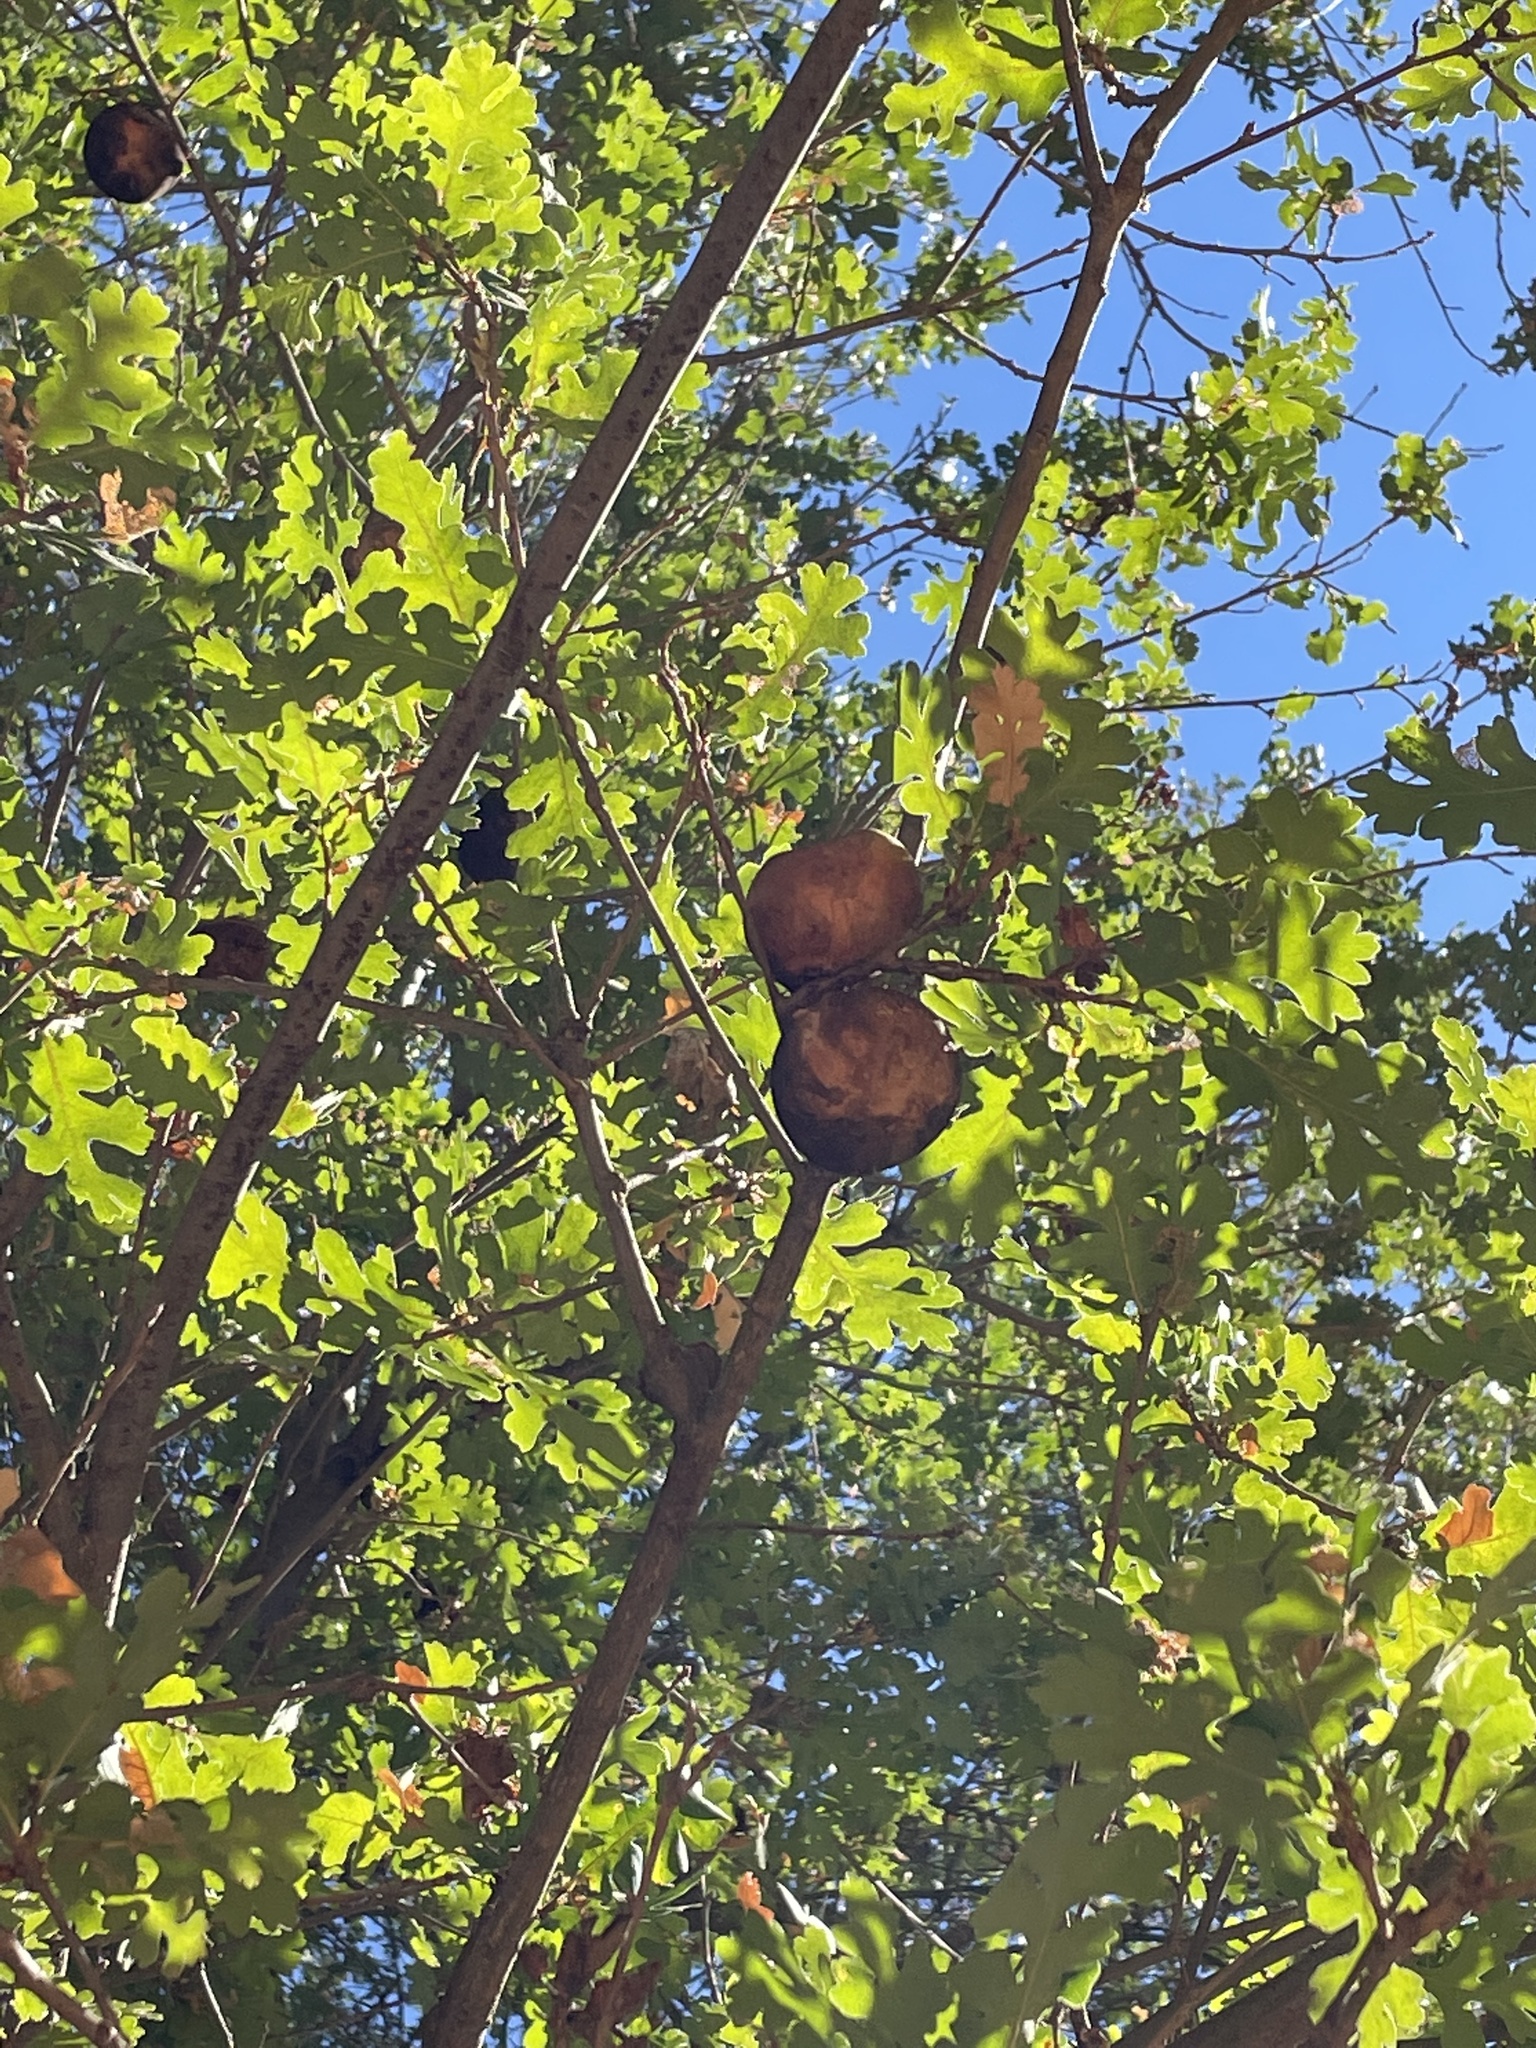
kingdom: Animalia
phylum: Arthropoda
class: Insecta
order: Hymenoptera
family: Cynipidae
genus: Andricus
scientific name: Andricus quercuscalifornicus
